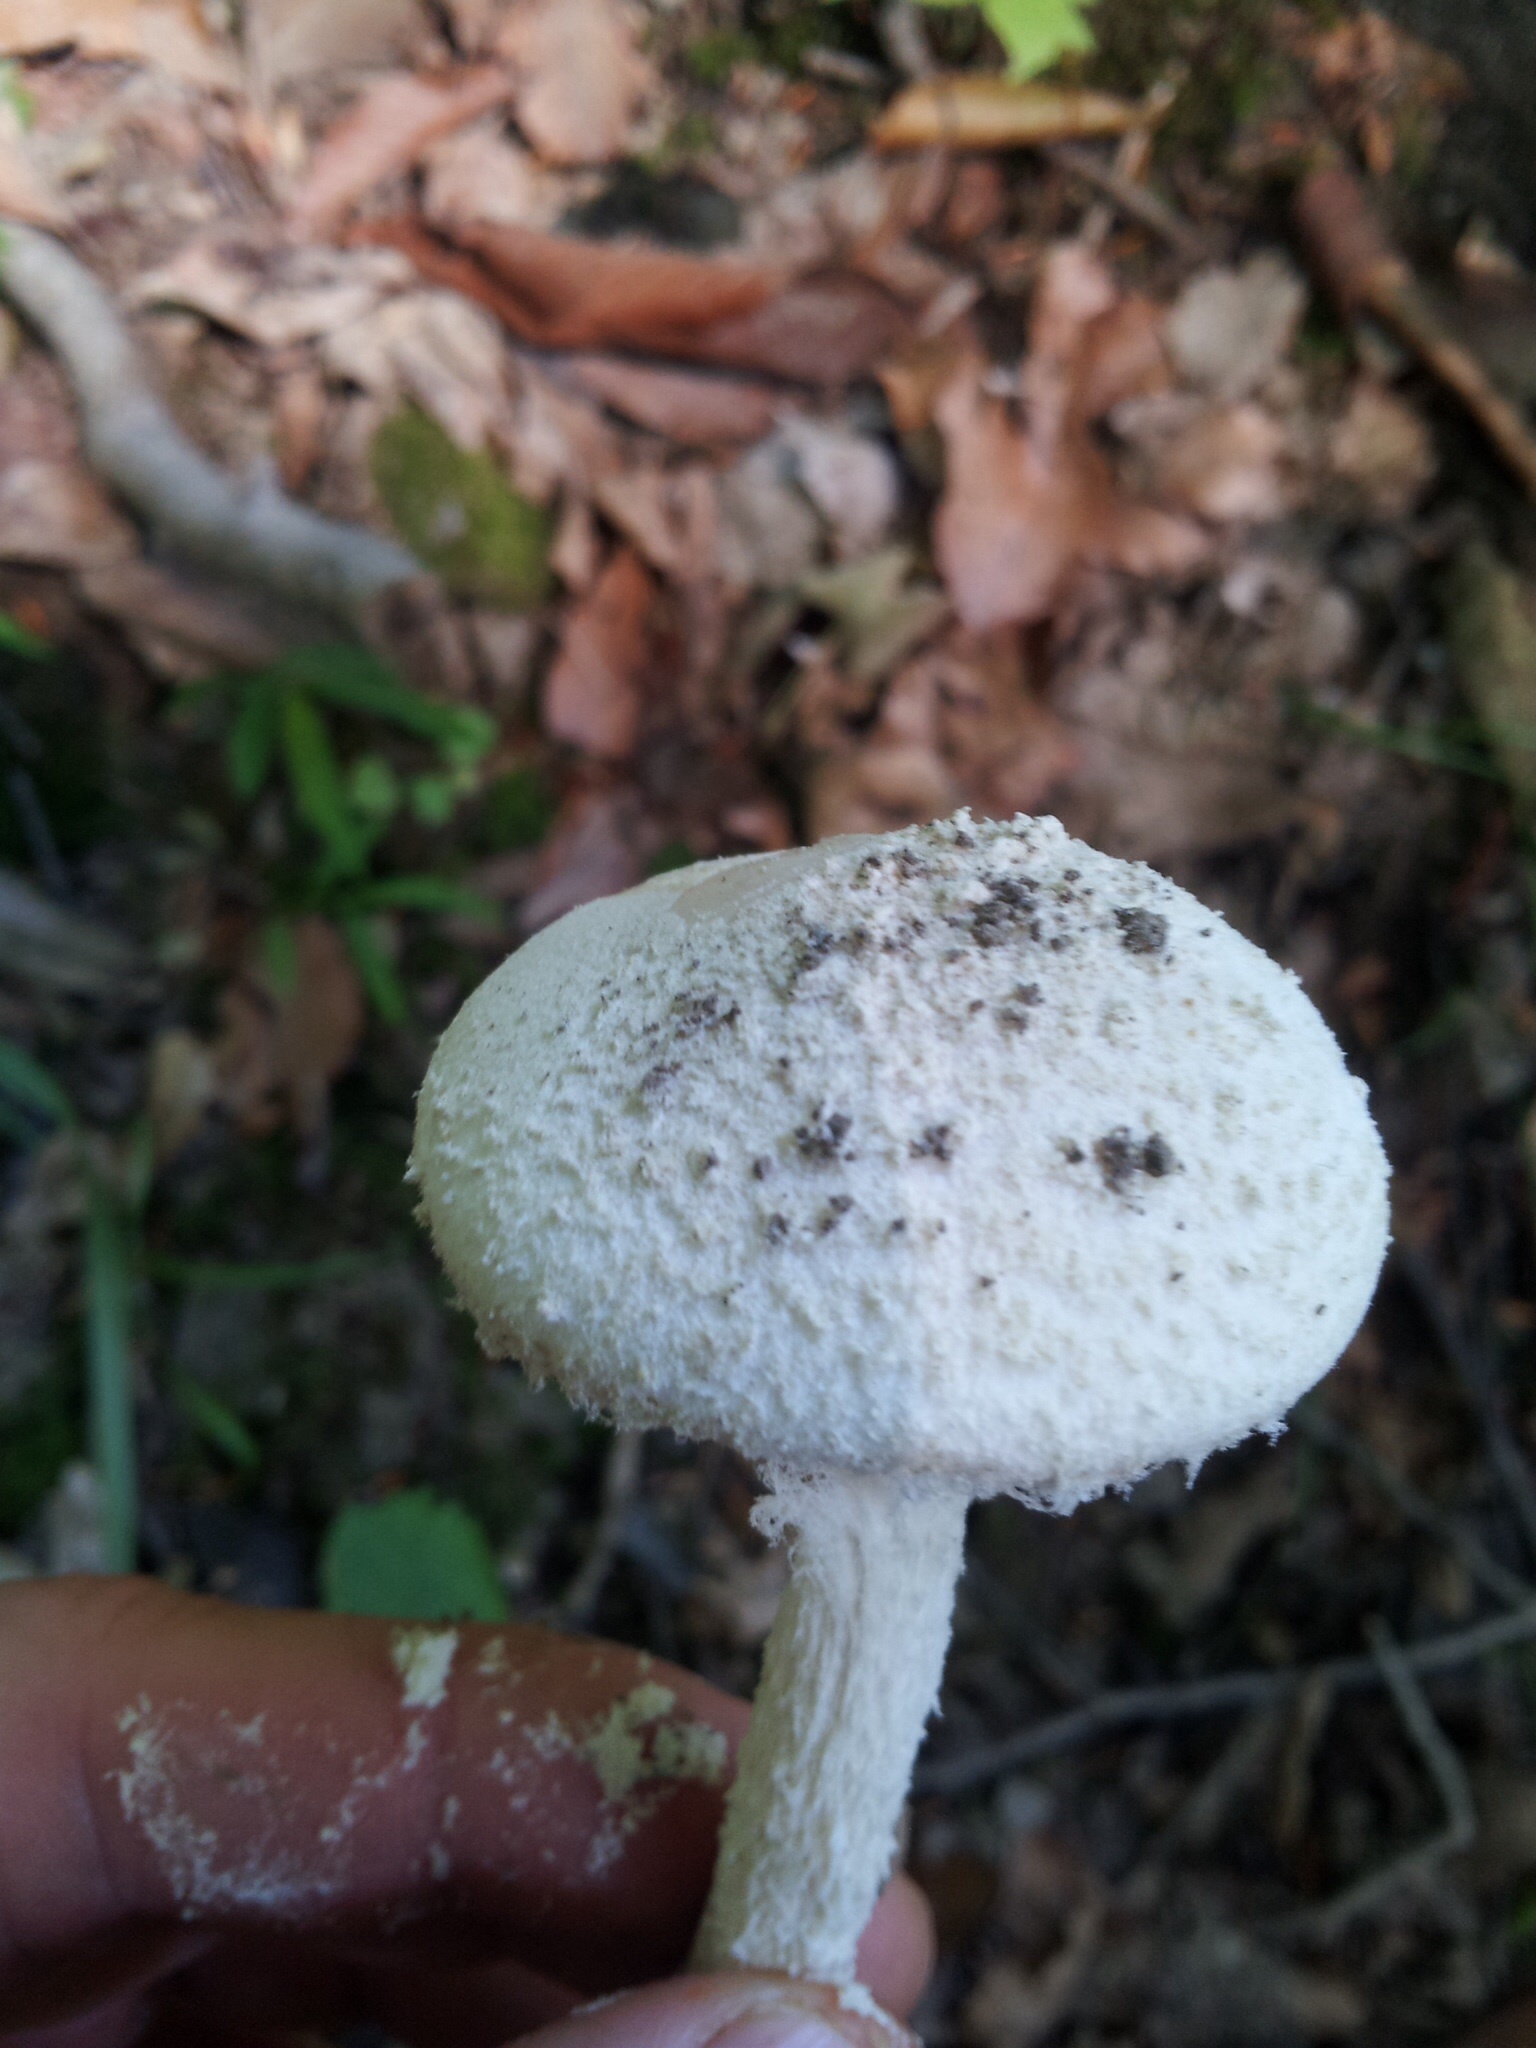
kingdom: Fungi
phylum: Basidiomycota
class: Agaricomycetes
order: Agaricales
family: Amanitaceae
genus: Amanita
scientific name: Amanita longipes
